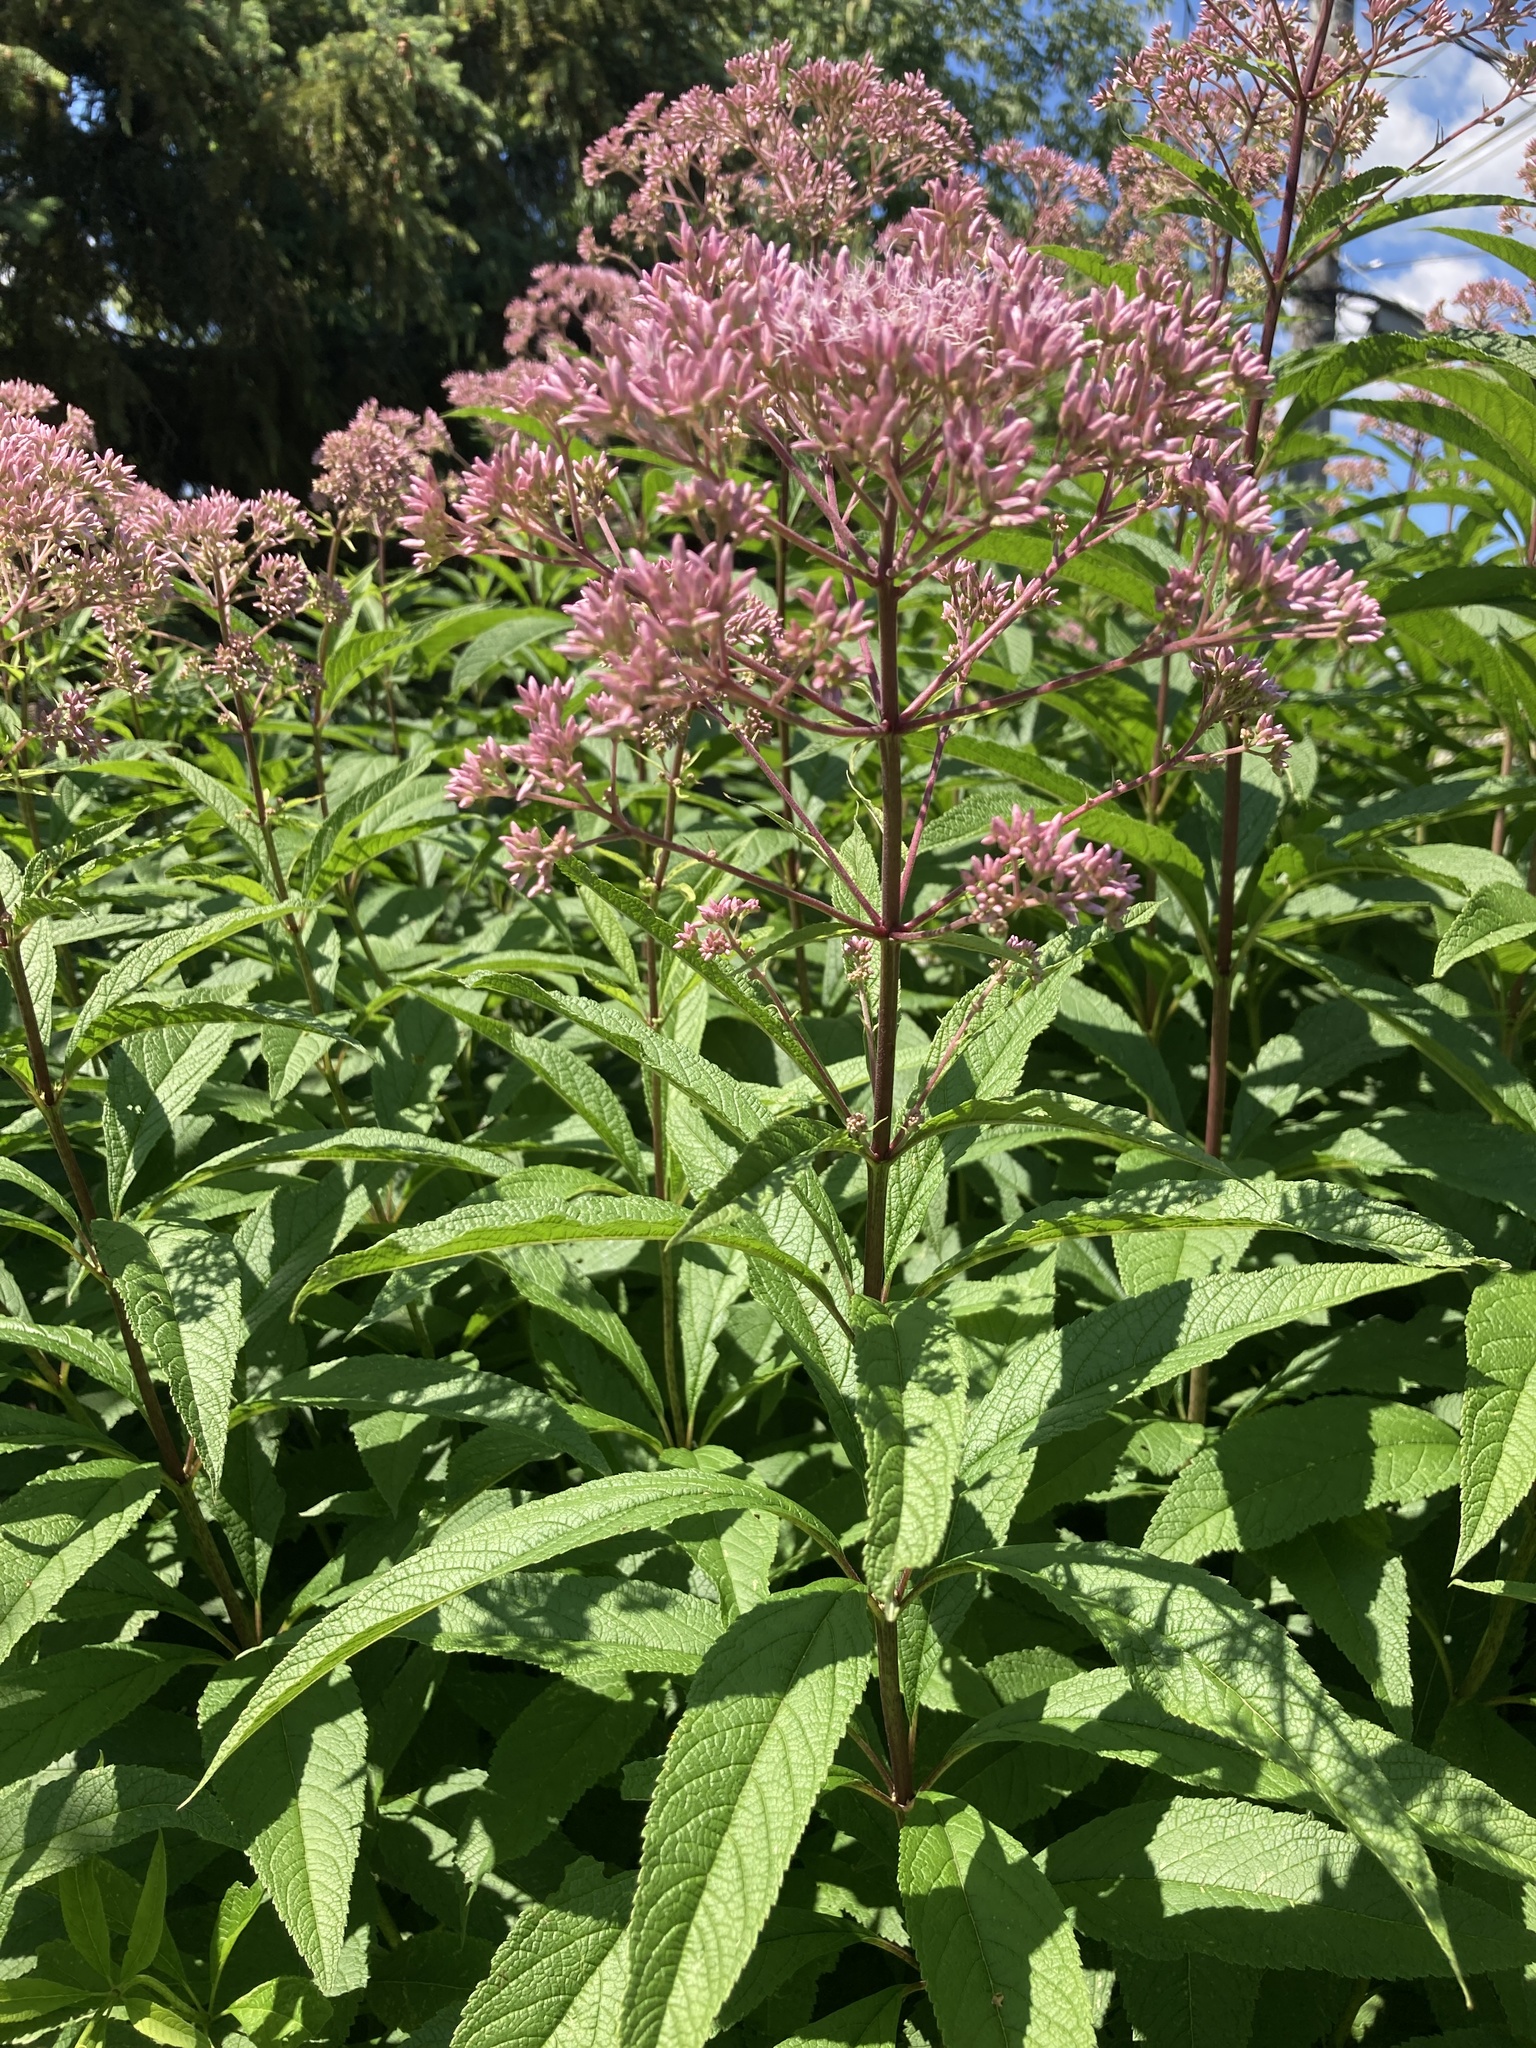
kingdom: Plantae
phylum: Tracheophyta
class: Magnoliopsida
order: Asterales
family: Asteraceae
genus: Eutrochium
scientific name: Eutrochium maculatum
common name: Spotted joe pye weed
